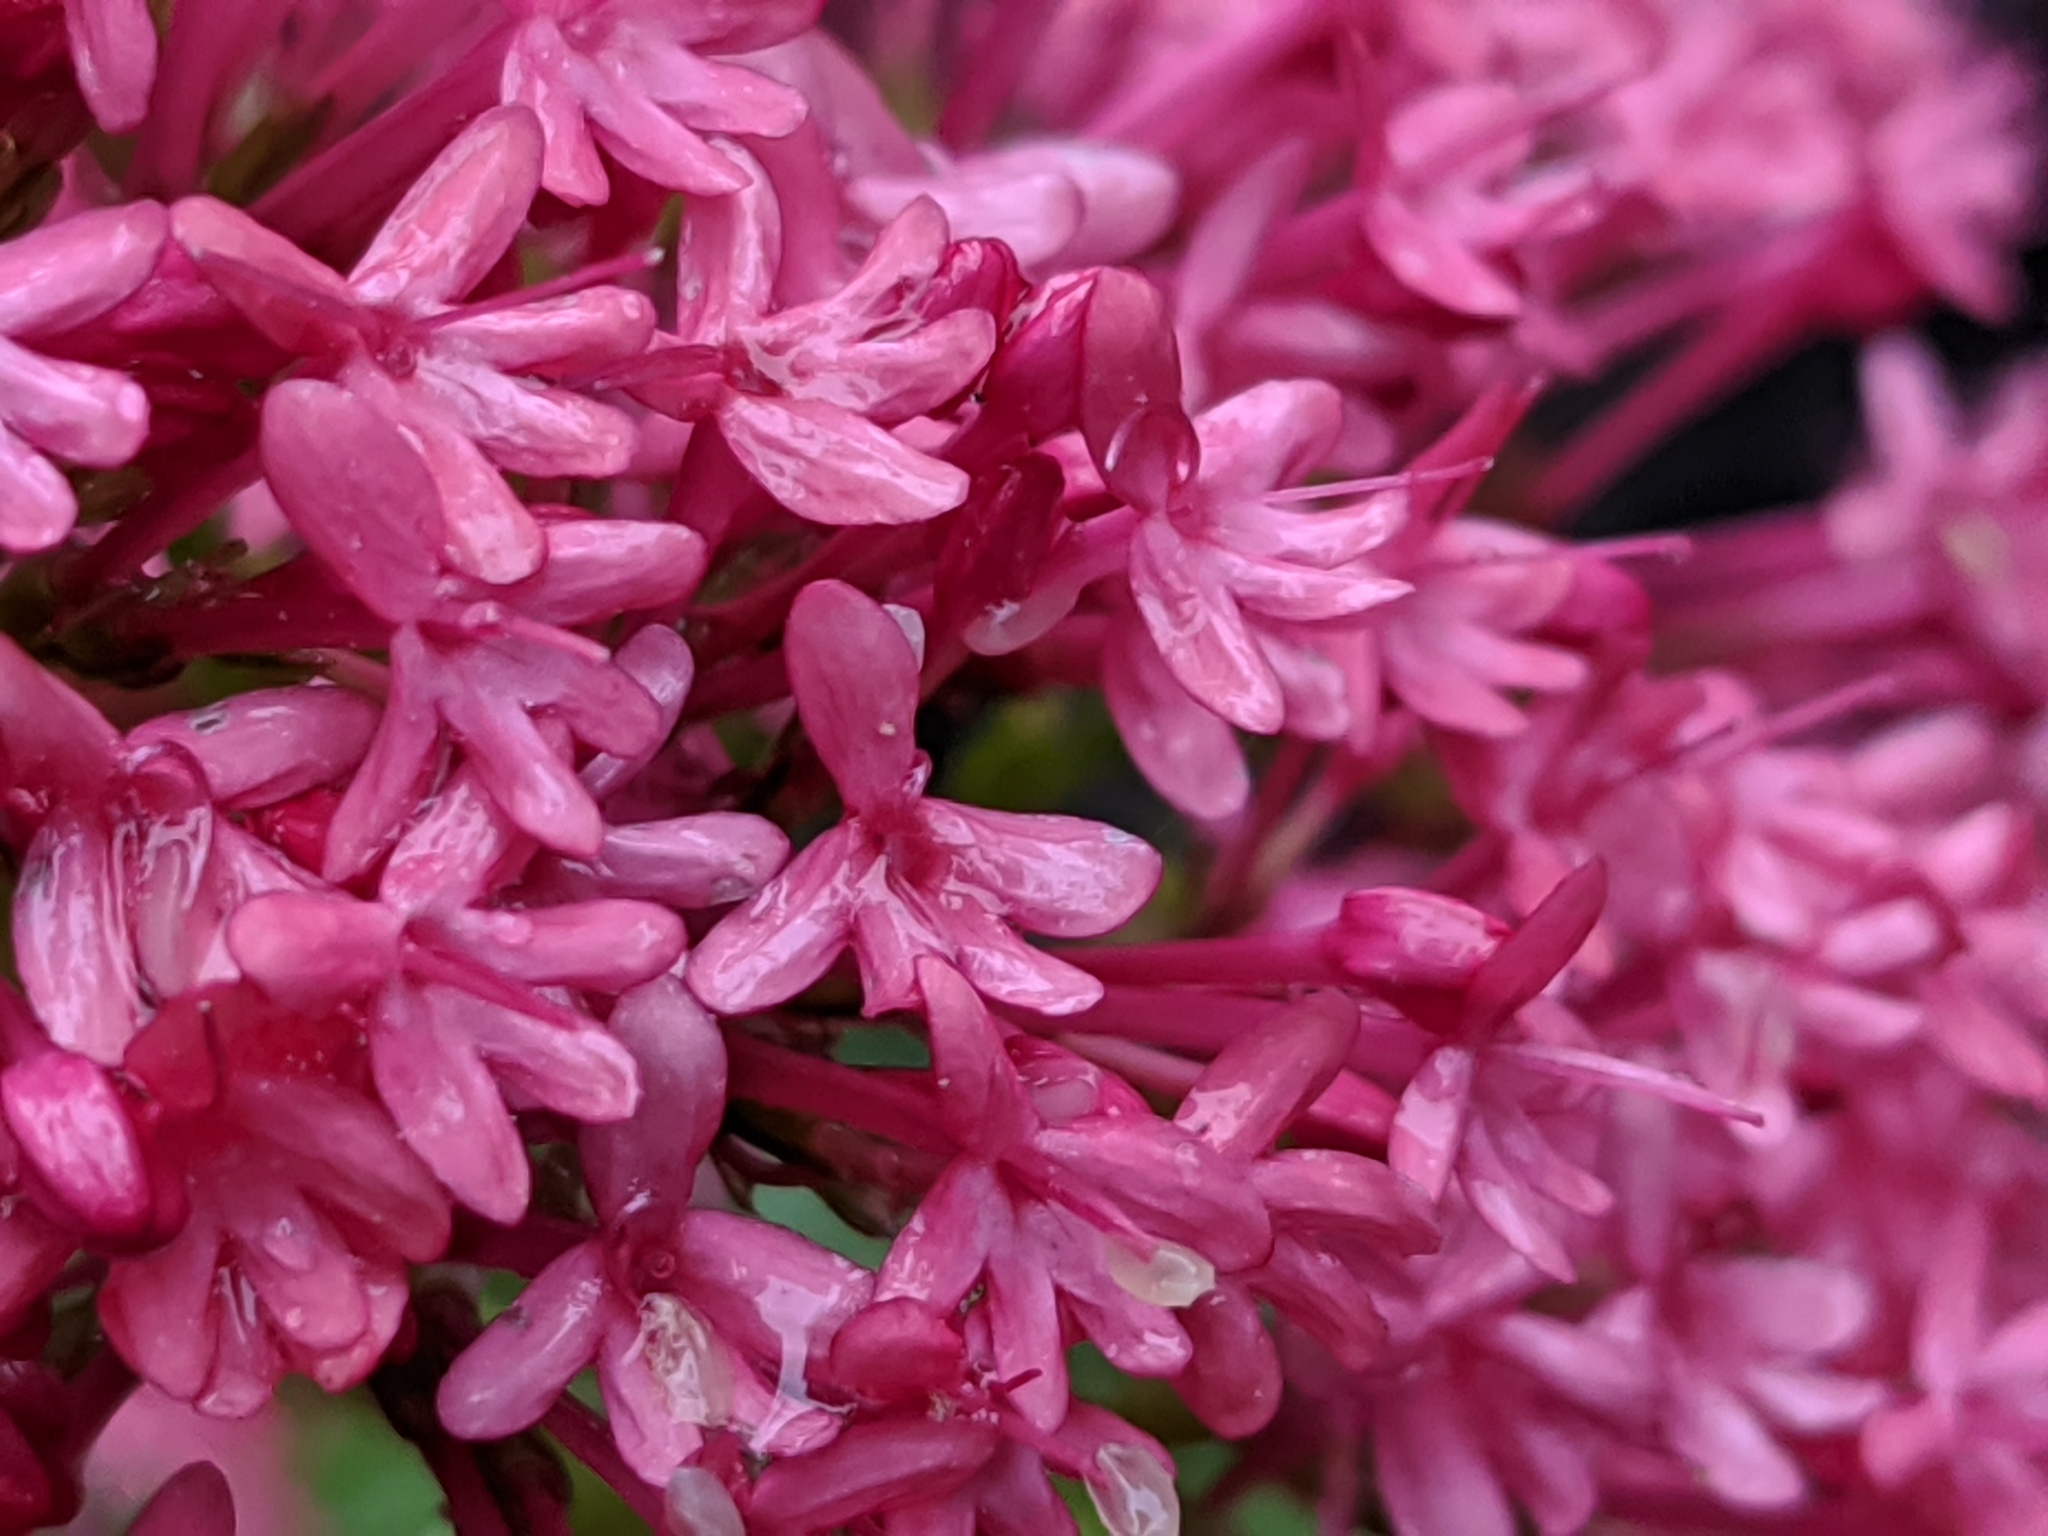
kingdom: Plantae
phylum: Tracheophyta
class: Magnoliopsida
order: Dipsacales
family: Caprifoliaceae
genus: Centranthus
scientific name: Centranthus ruber
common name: Red valerian
